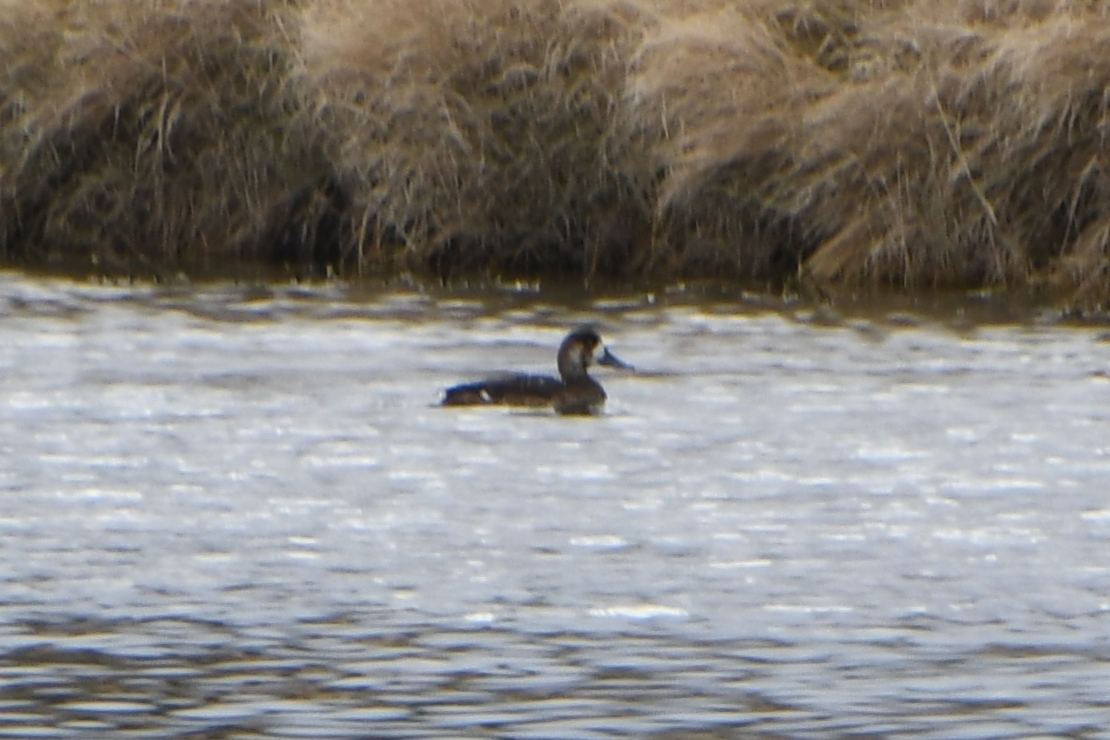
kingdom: Animalia
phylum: Chordata
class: Aves
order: Anseriformes
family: Anatidae
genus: Aythya
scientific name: Aythya marila
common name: Greater scaup
